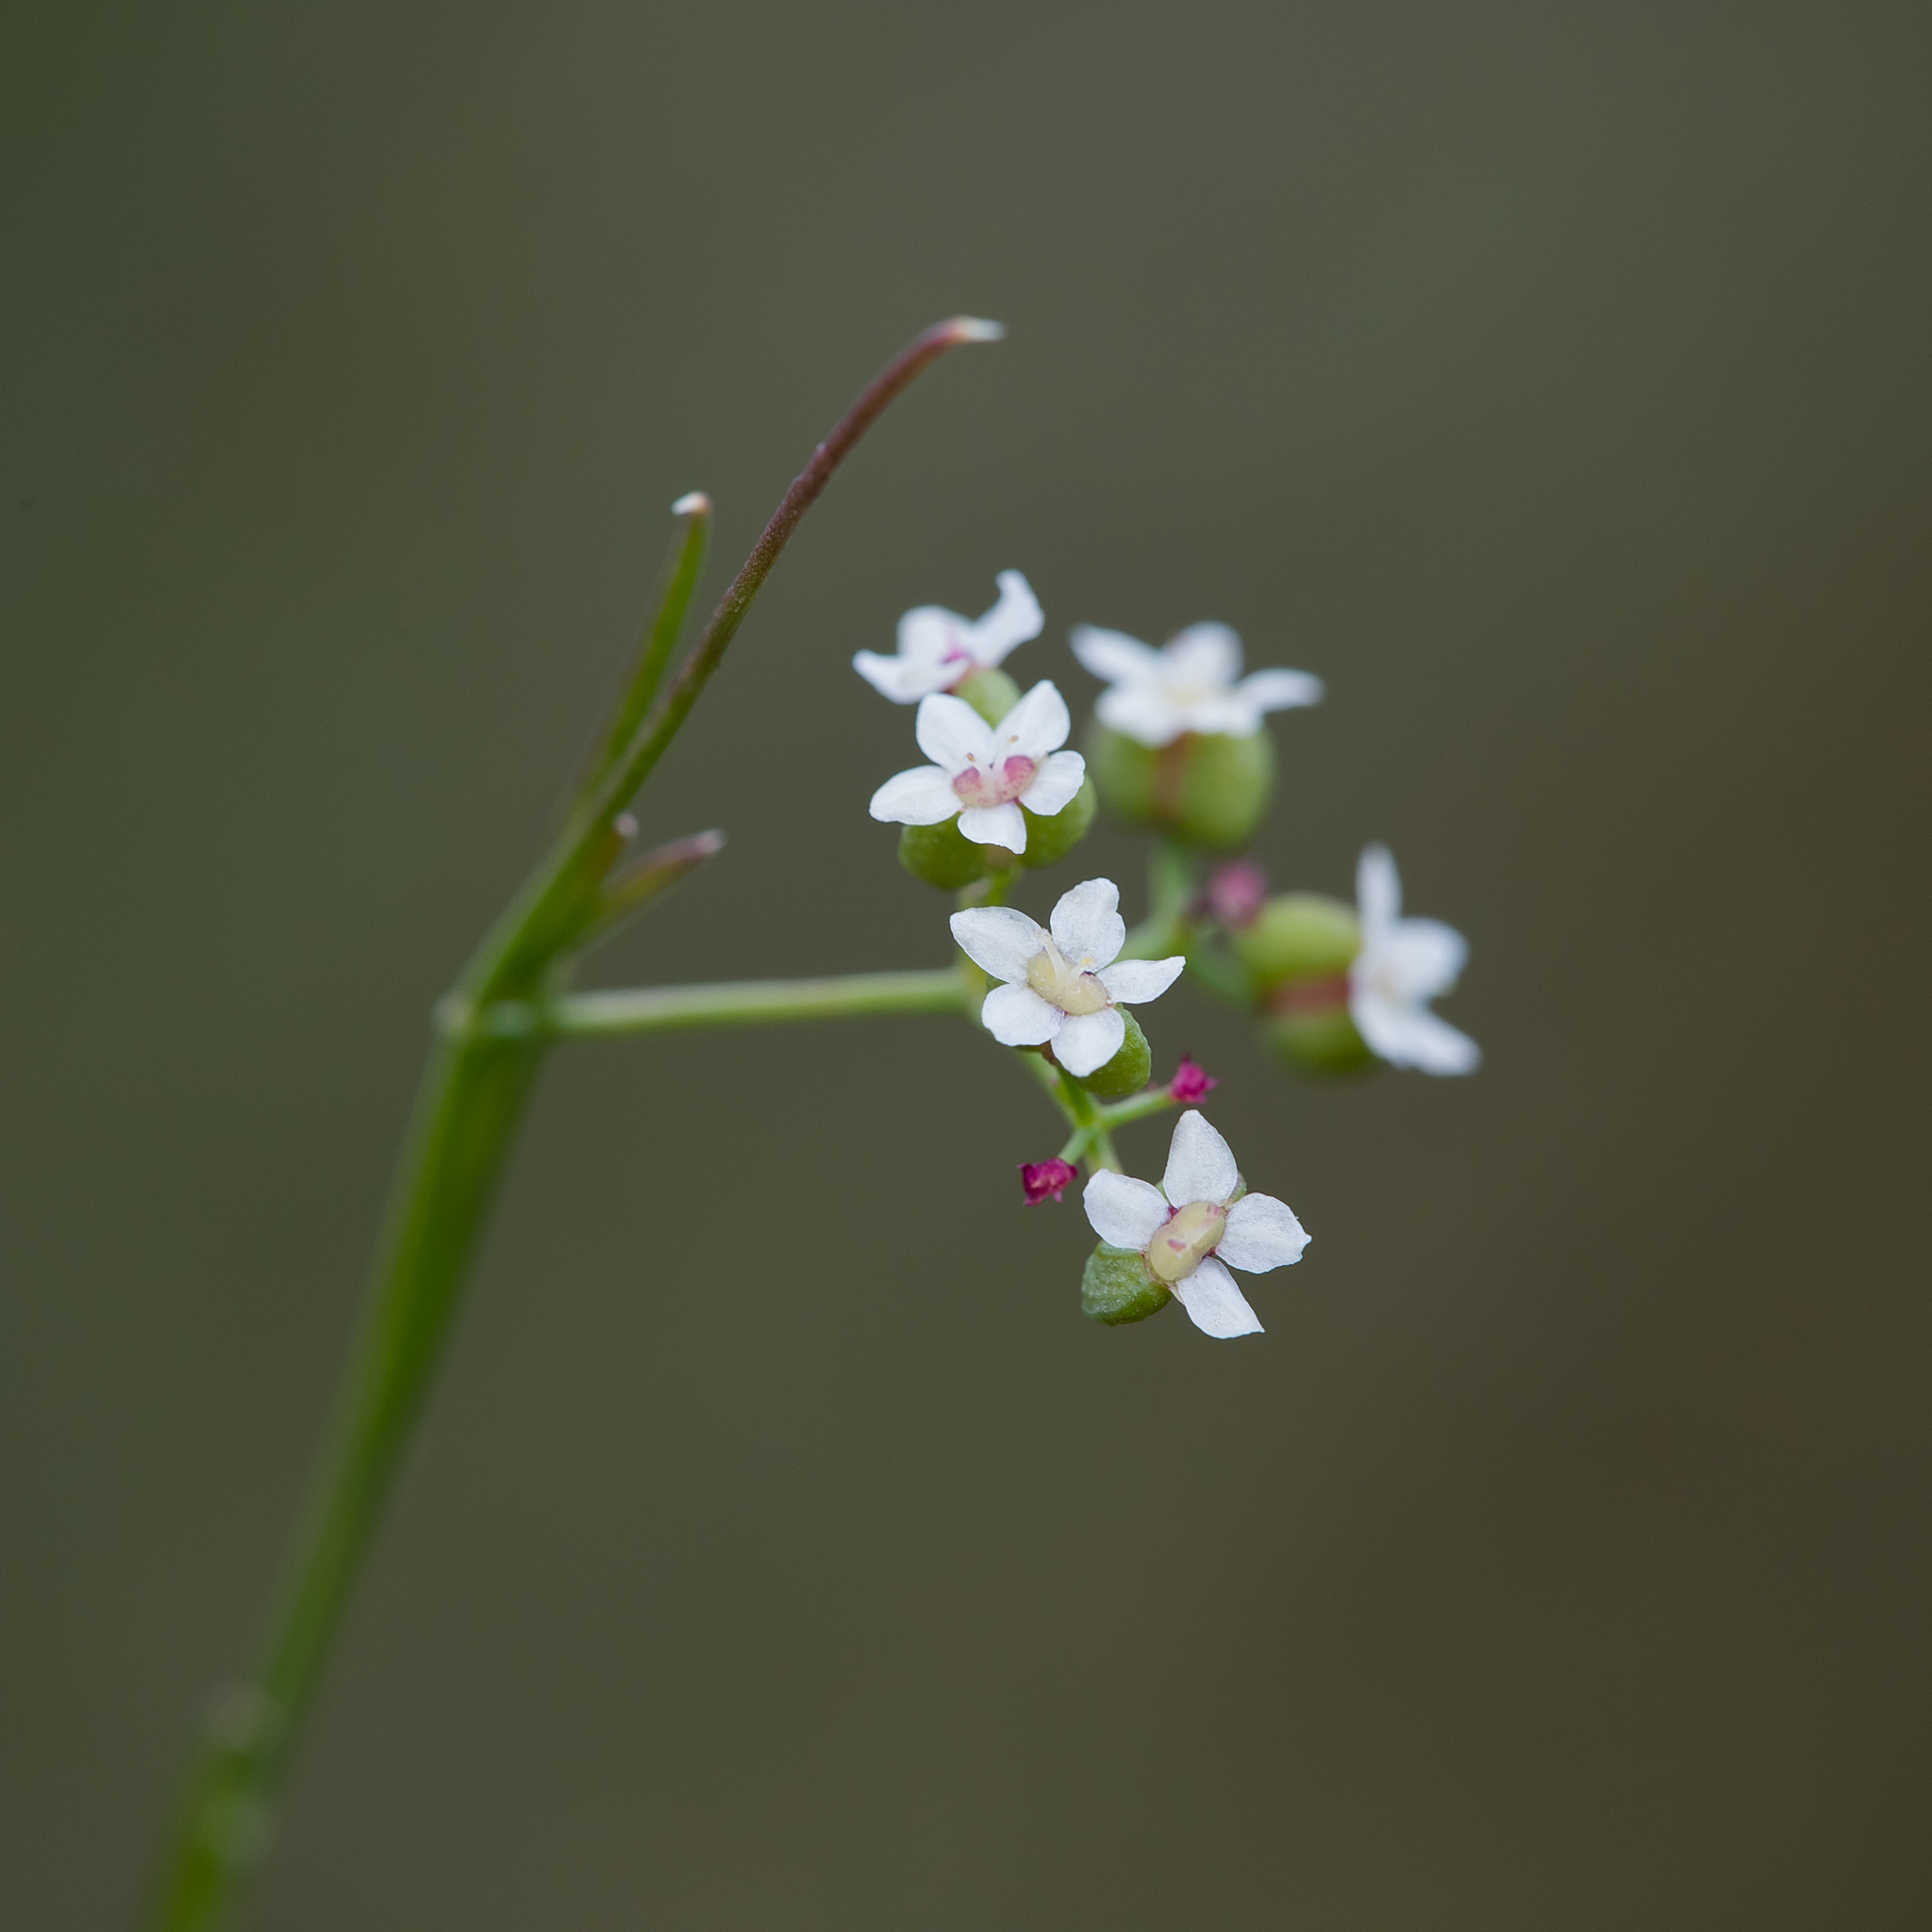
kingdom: Plantae
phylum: Tracheophyta
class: Magnoliopsida
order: Apiales
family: Apiaceae
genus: Platysace
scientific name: Platysace heterophylla
